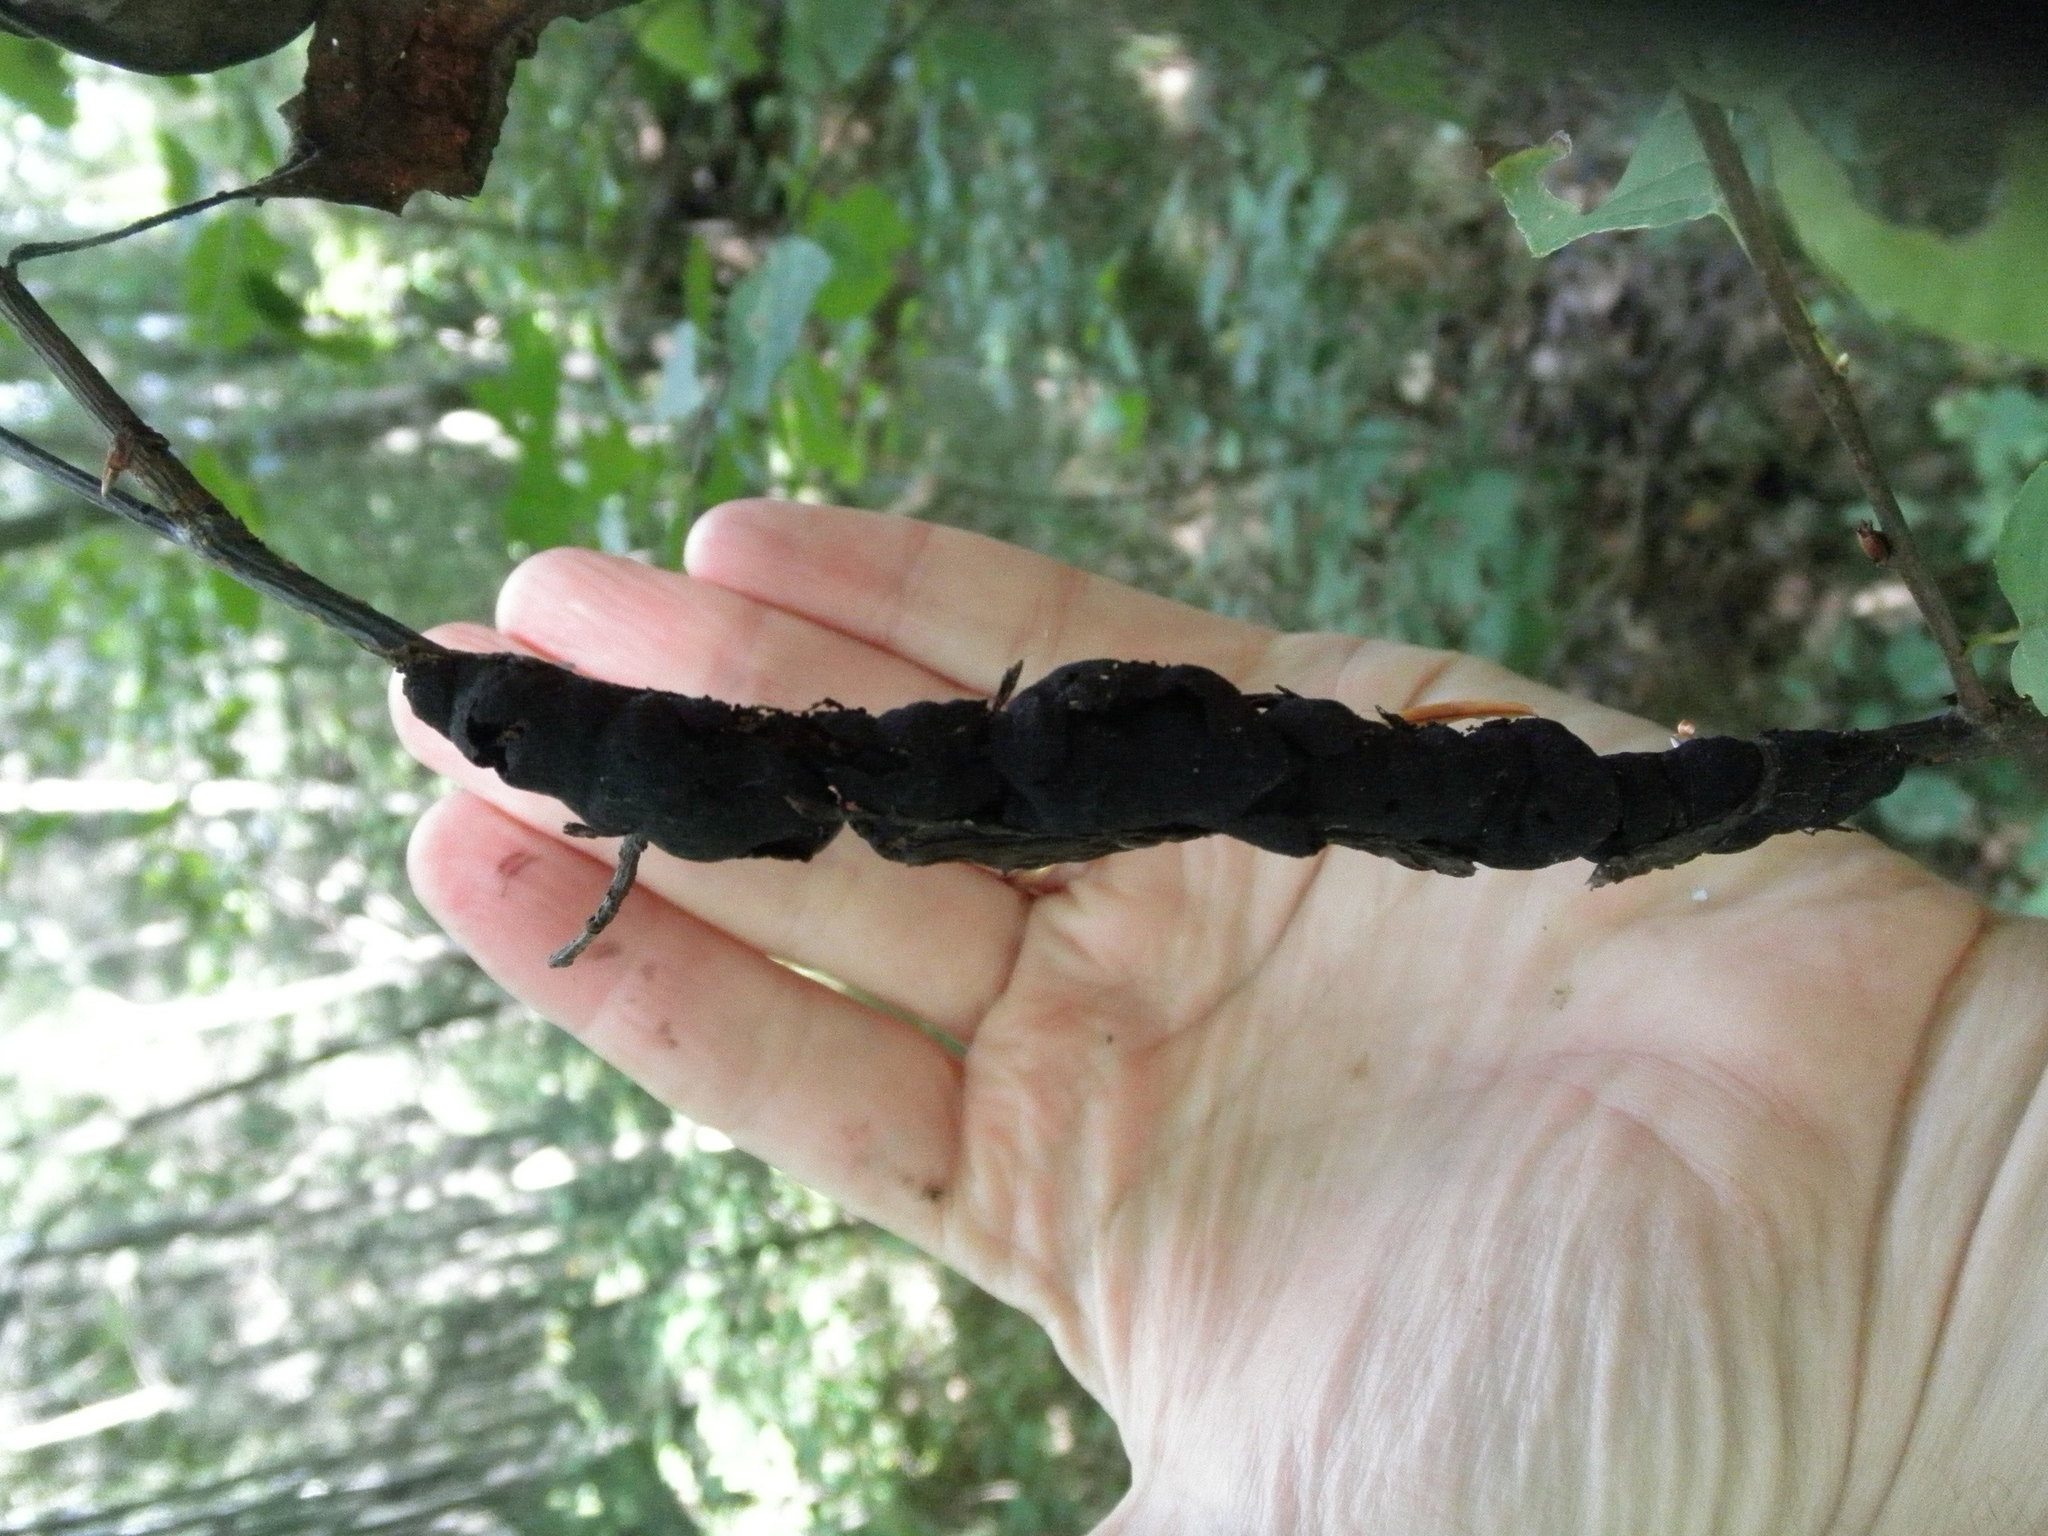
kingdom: Fungi
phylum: Ascomycota
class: Dothideomycetes
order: Venturiales
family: Venturiaceae
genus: Apiosporina
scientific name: Apiosporina morbosa
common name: Black knot
